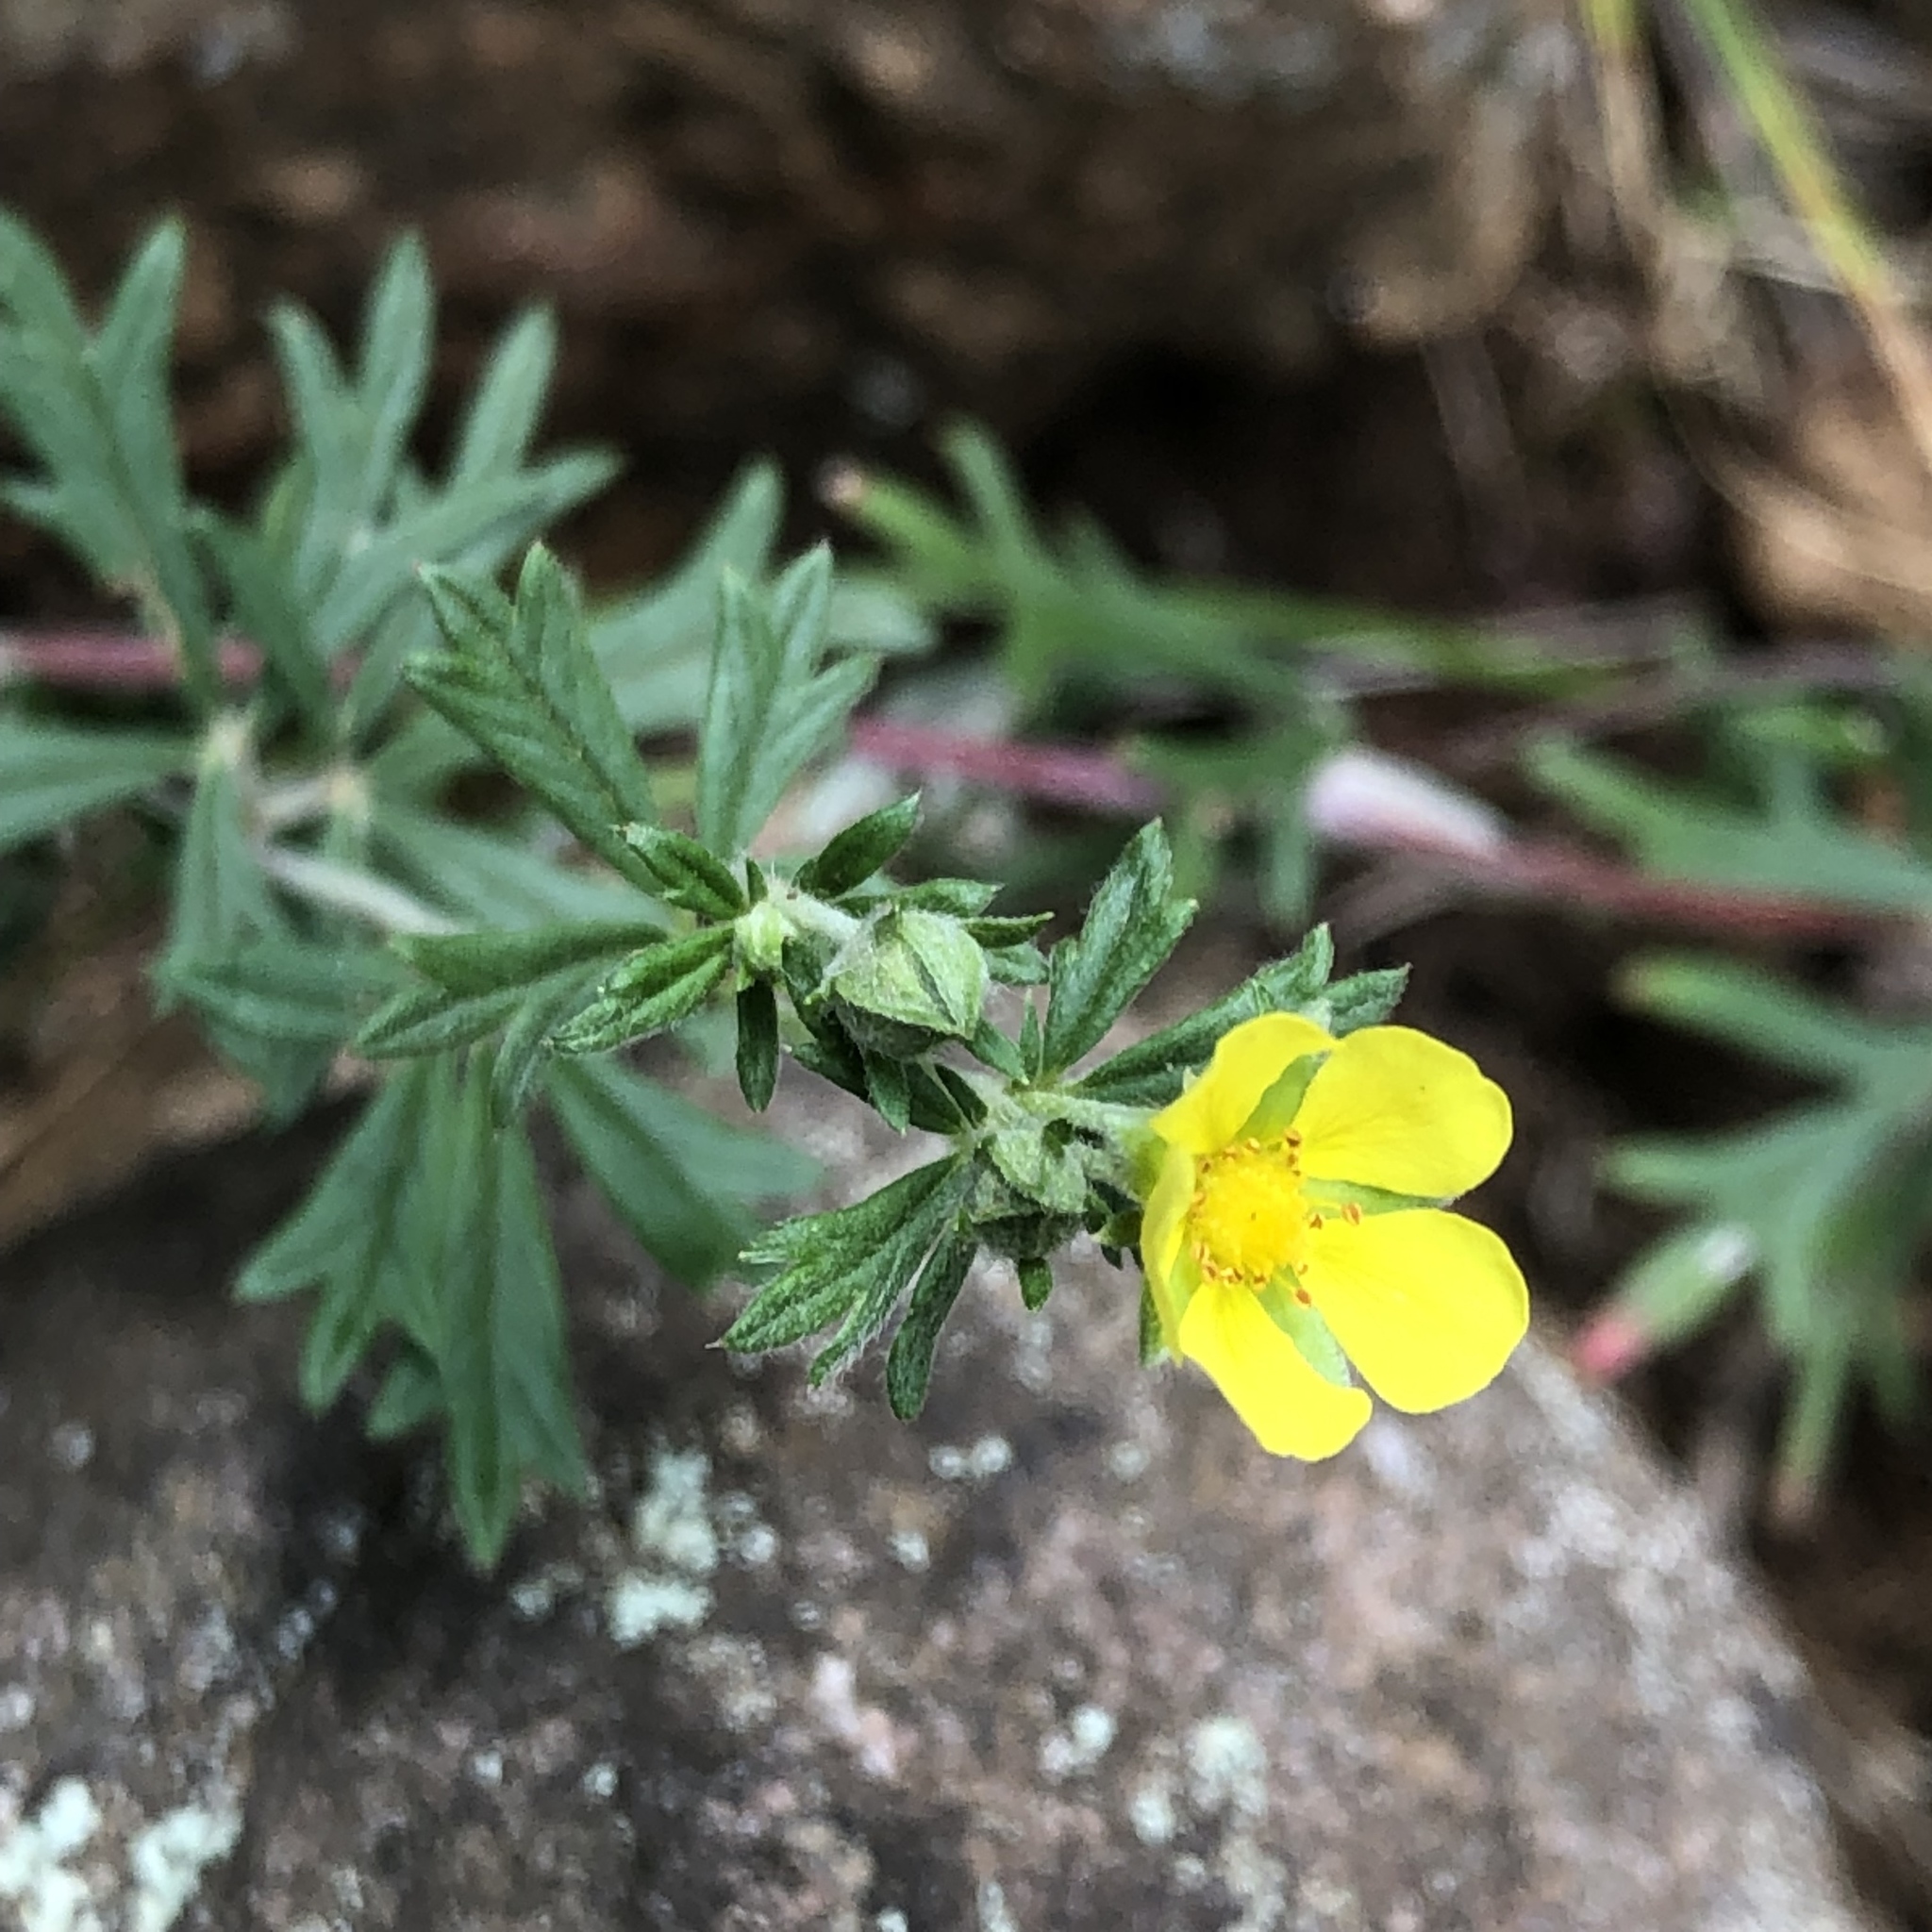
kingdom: Plantae
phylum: Tracheophyta
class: Magnoliopsida
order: Rosales
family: Rosaceae
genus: Potentilla
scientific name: Potentilla argentea
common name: Hoary cinquefoil
